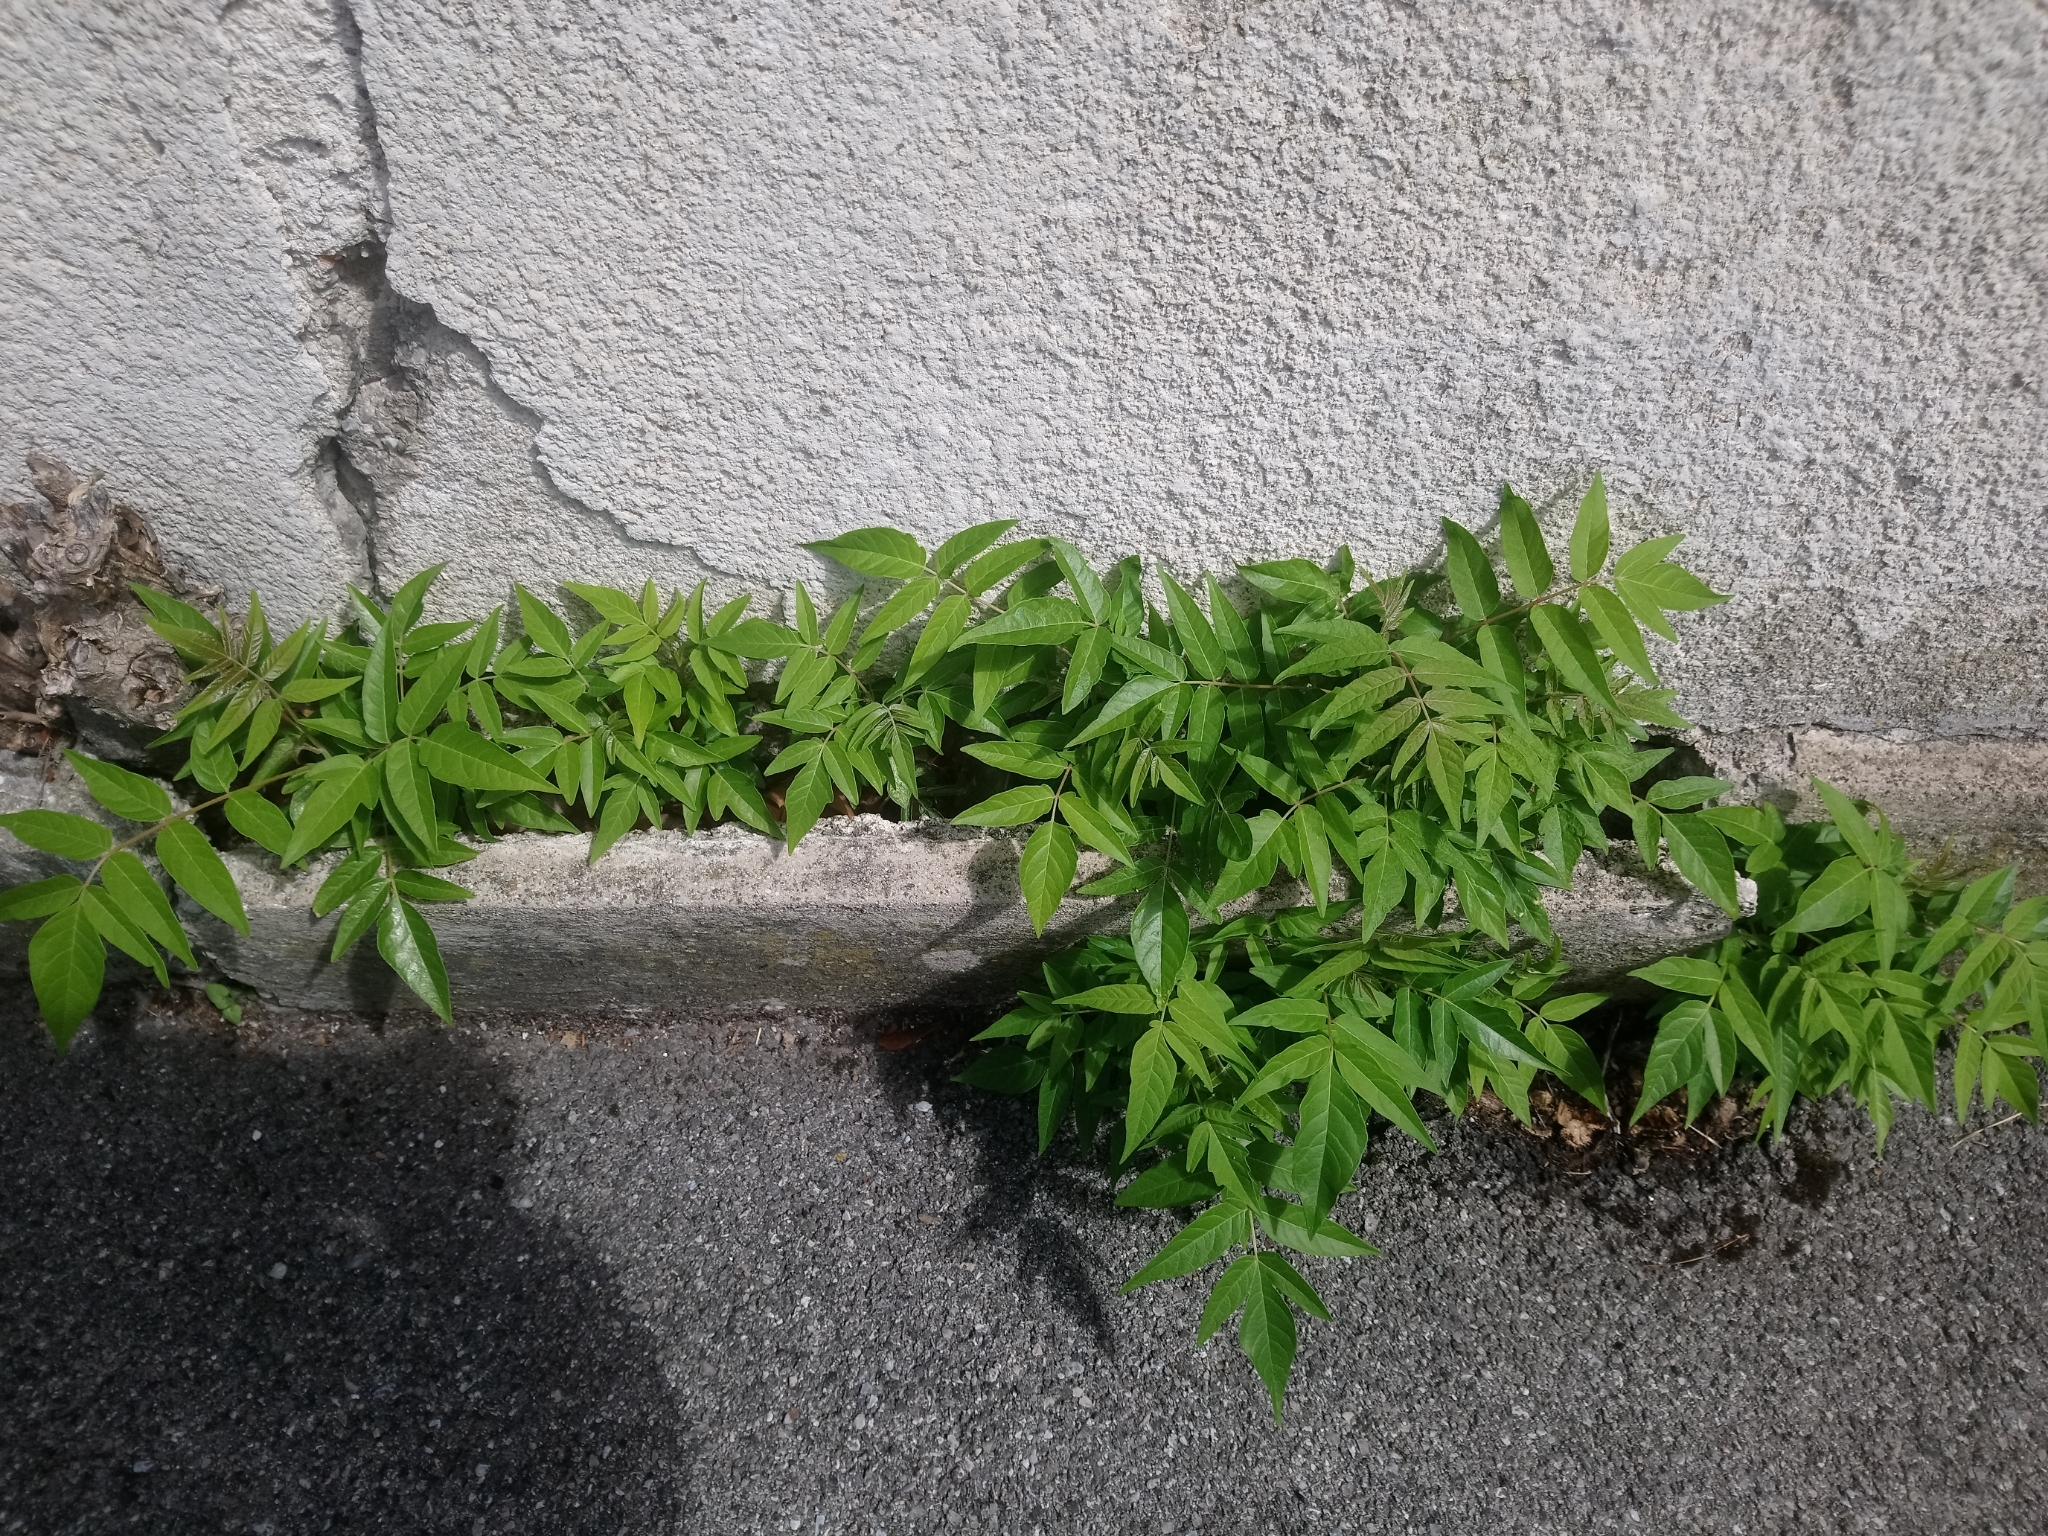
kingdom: Plantae
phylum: Tracheophyta
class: Magnoliopsida
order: Sapindales
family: Simaroubaceae
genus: Ailanthus
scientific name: Ailanthus altissima
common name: Tree-of-heaven
